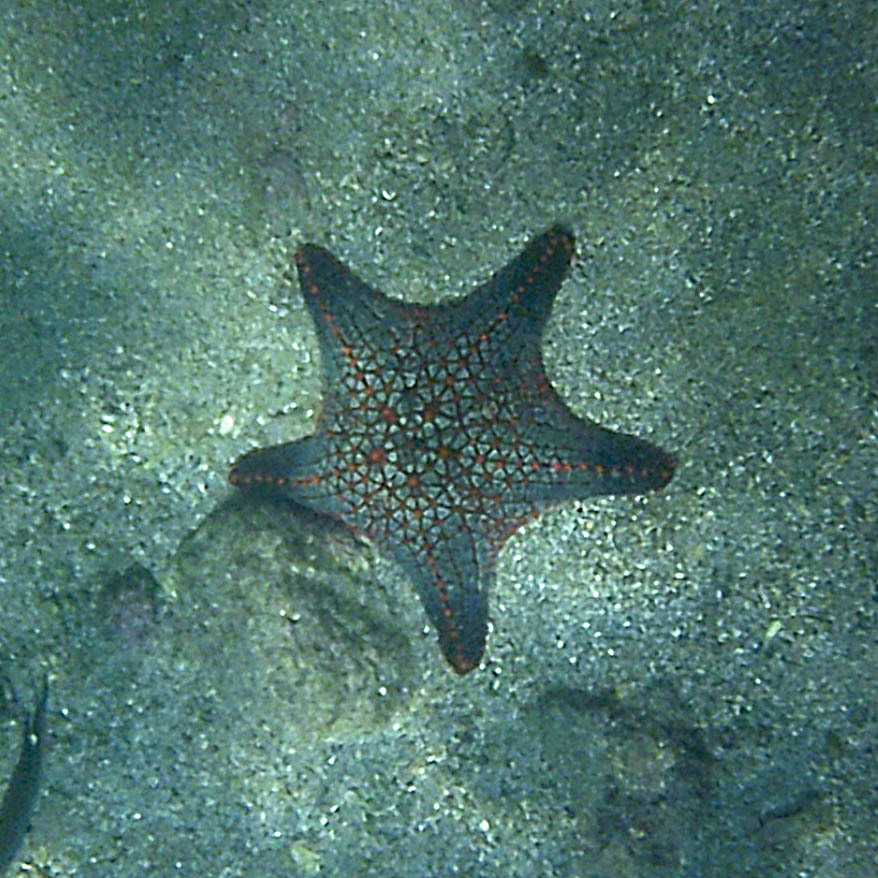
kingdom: Animalia
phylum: Echinodermata
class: Asteroidea
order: Valvatida
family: Oreasteridae
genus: Pentaceraster
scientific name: Pentaceraster cumingi
